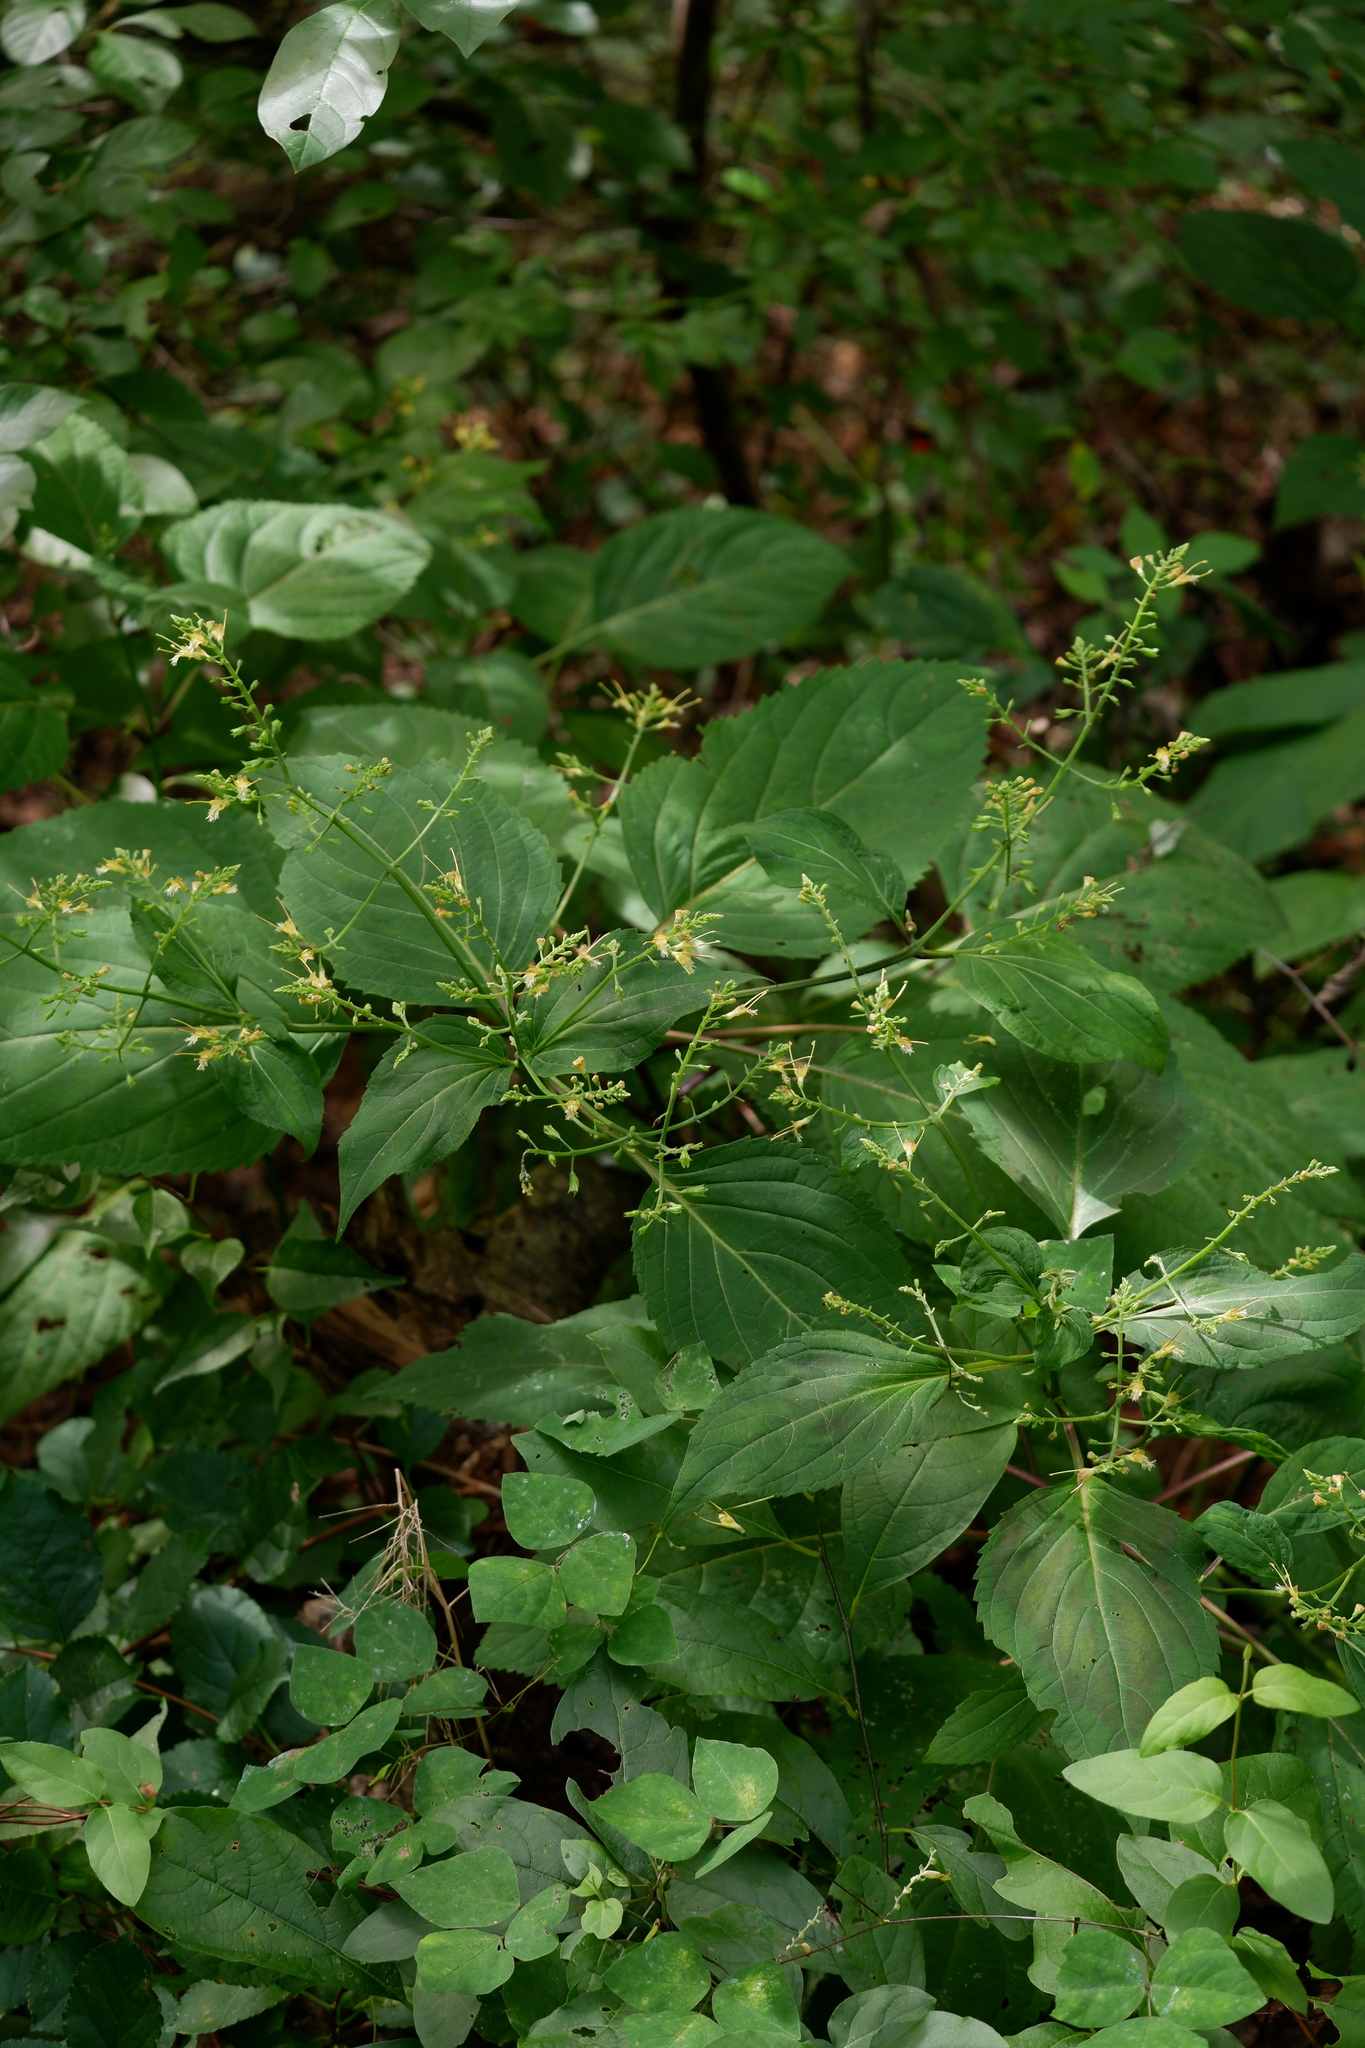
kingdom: Plantae
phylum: Tracheophyta
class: Magnoliopsida
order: Lamiales
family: Lamiaceae
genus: Collinsonia
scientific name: Collinsonia canadensis
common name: Northern horsebalm
